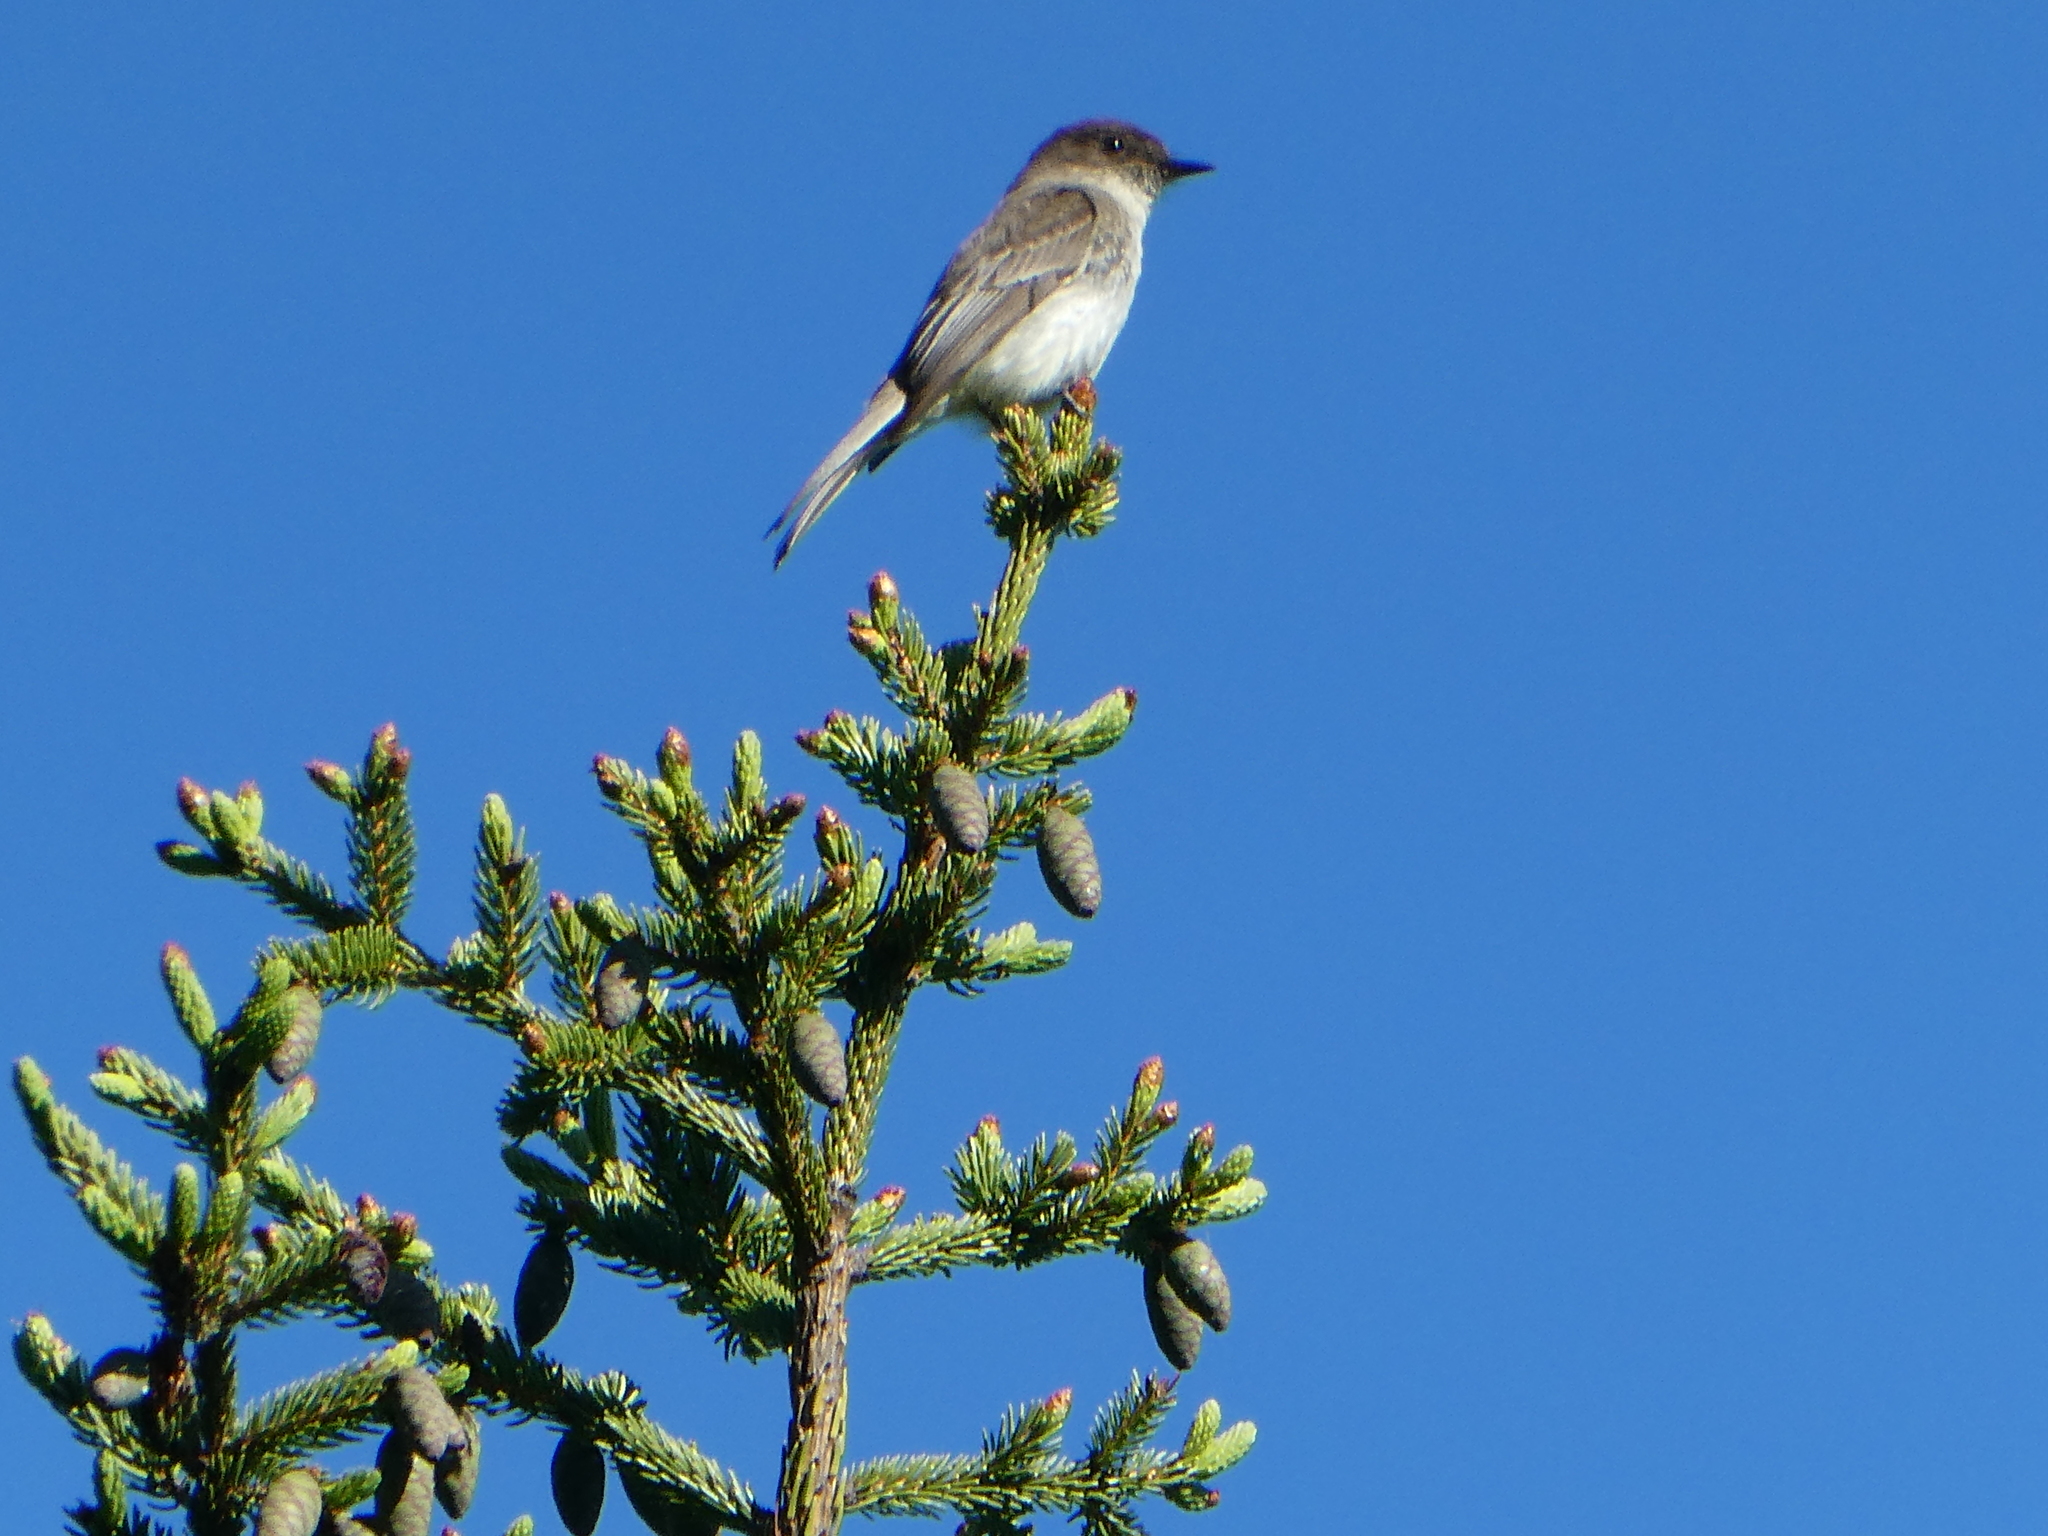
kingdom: Animalia
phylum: Chordata
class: Aves
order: Passeriformes
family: Tyrannidae
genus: Sayornis
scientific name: Sayornis phoebe
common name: Eastern phoebe
